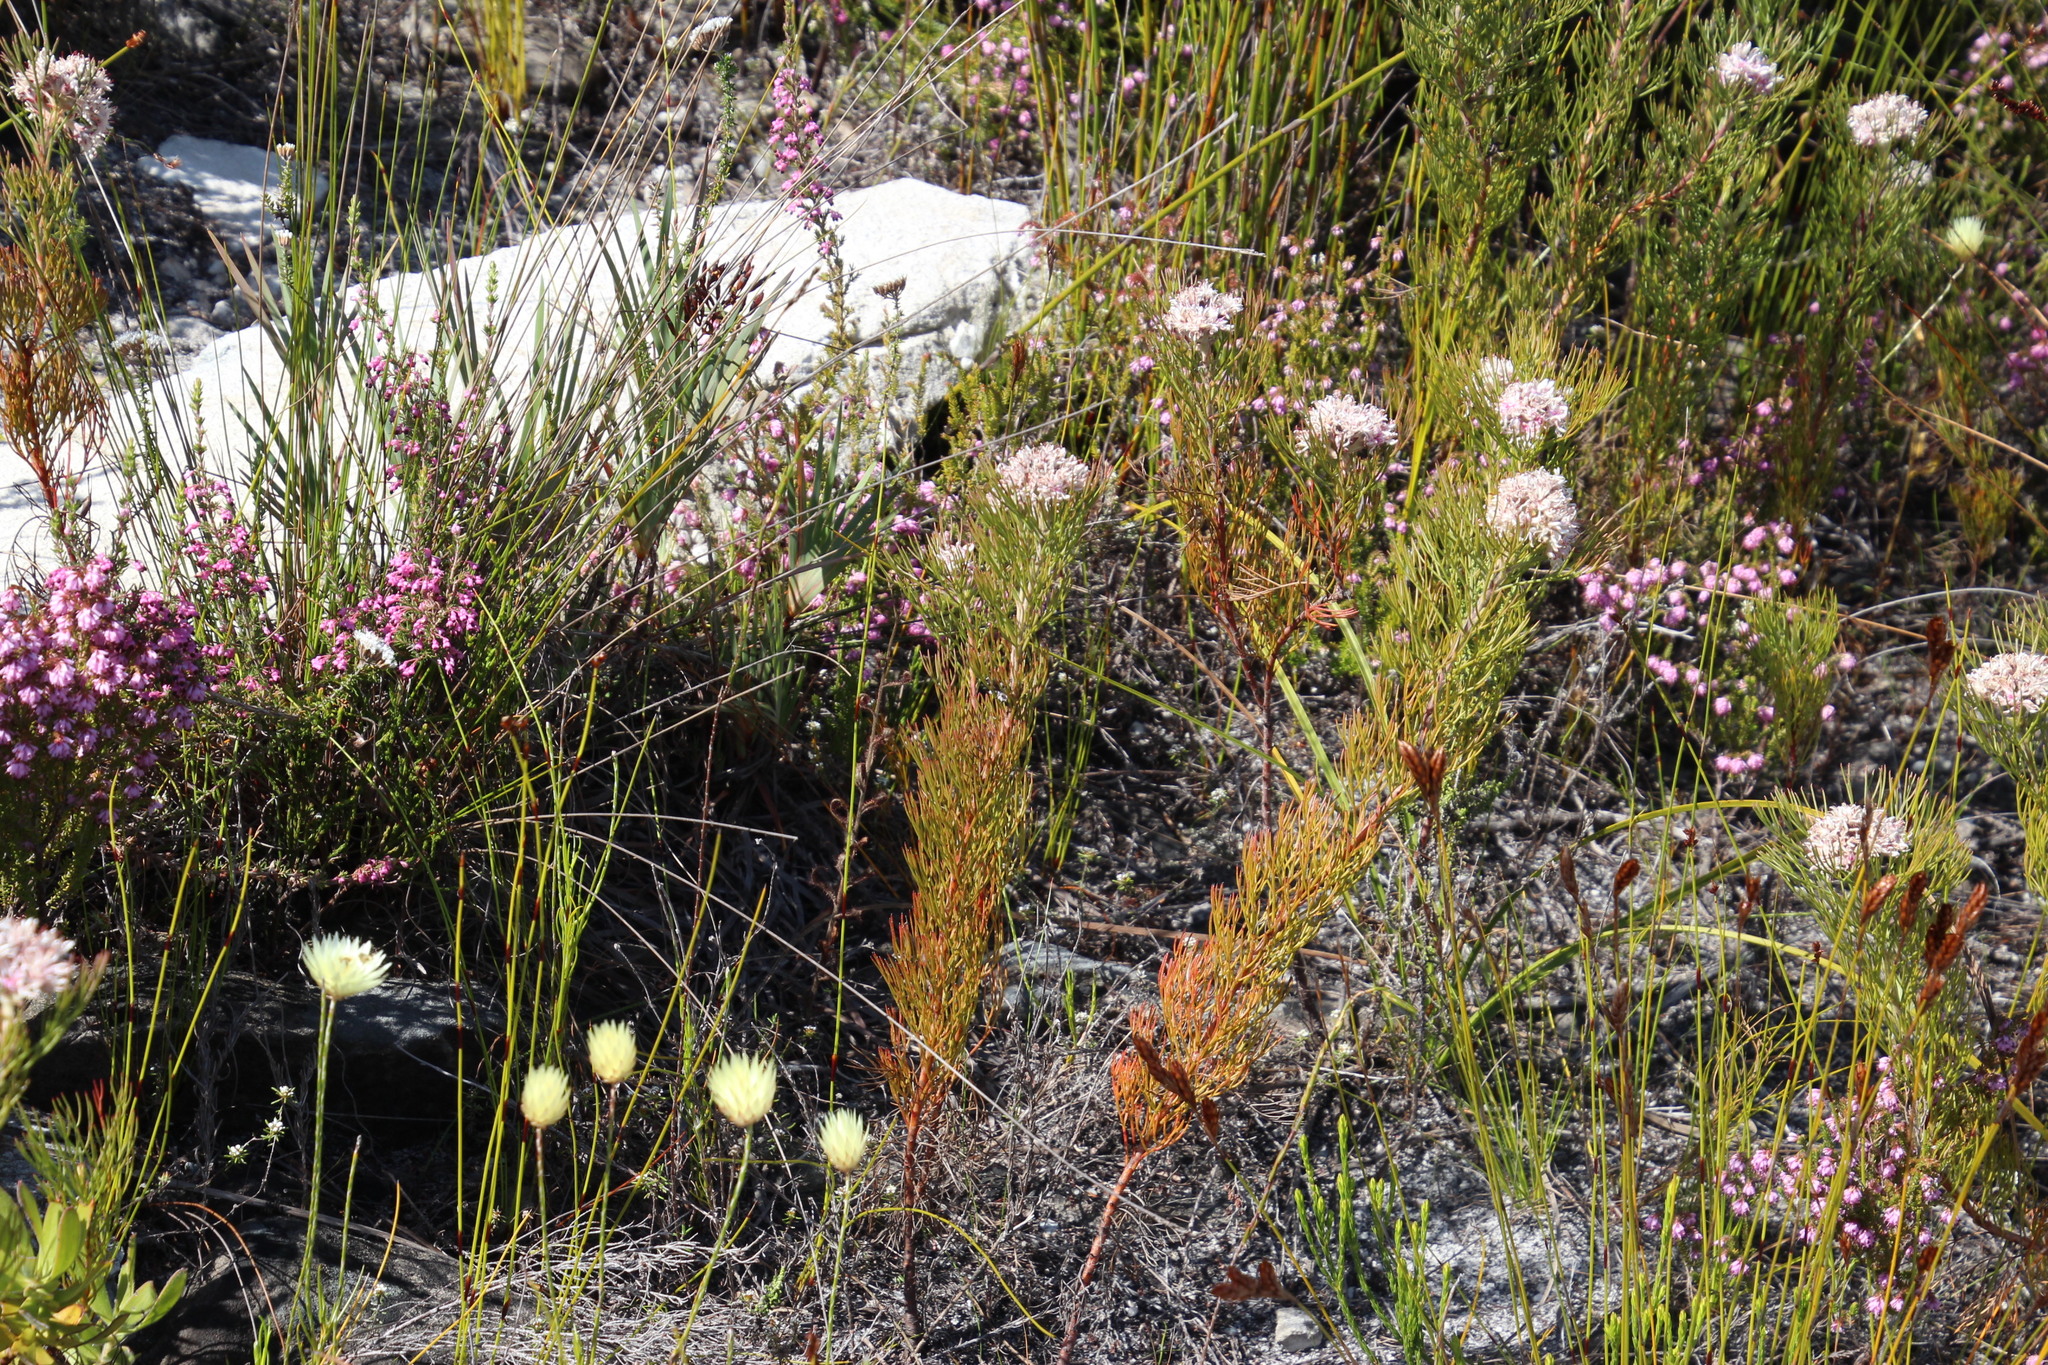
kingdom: Plantae
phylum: Tracheophyta
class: Magnoliopsida
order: Proteales
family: Proteaceae
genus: Serruria
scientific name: Serruria ascendens
